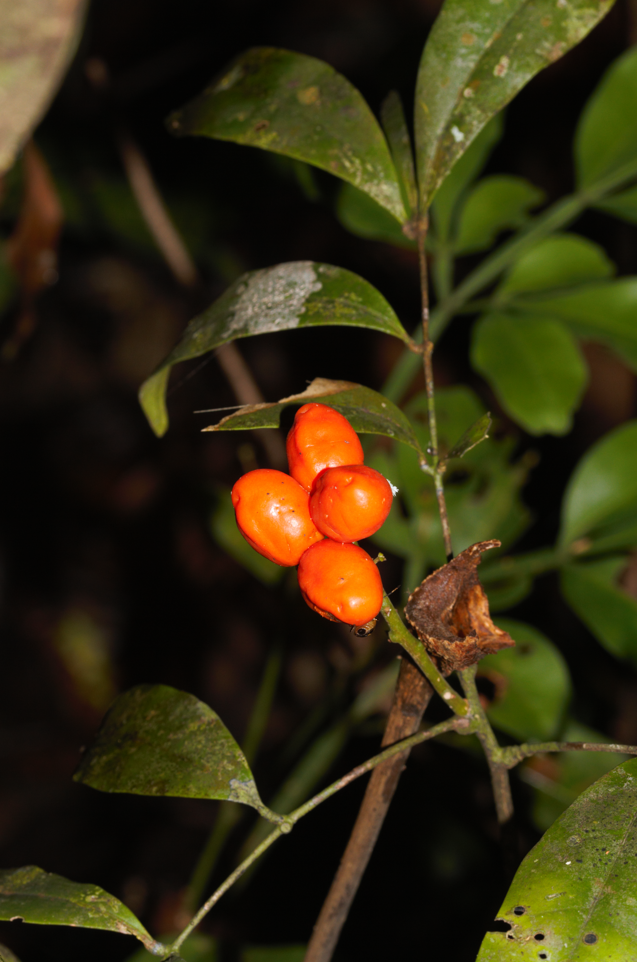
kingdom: Plantae
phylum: Tracheophyta
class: Magnoliopsida
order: Sapindales
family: Simaroubaceae
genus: Simaba
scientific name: Simaba guianensis
